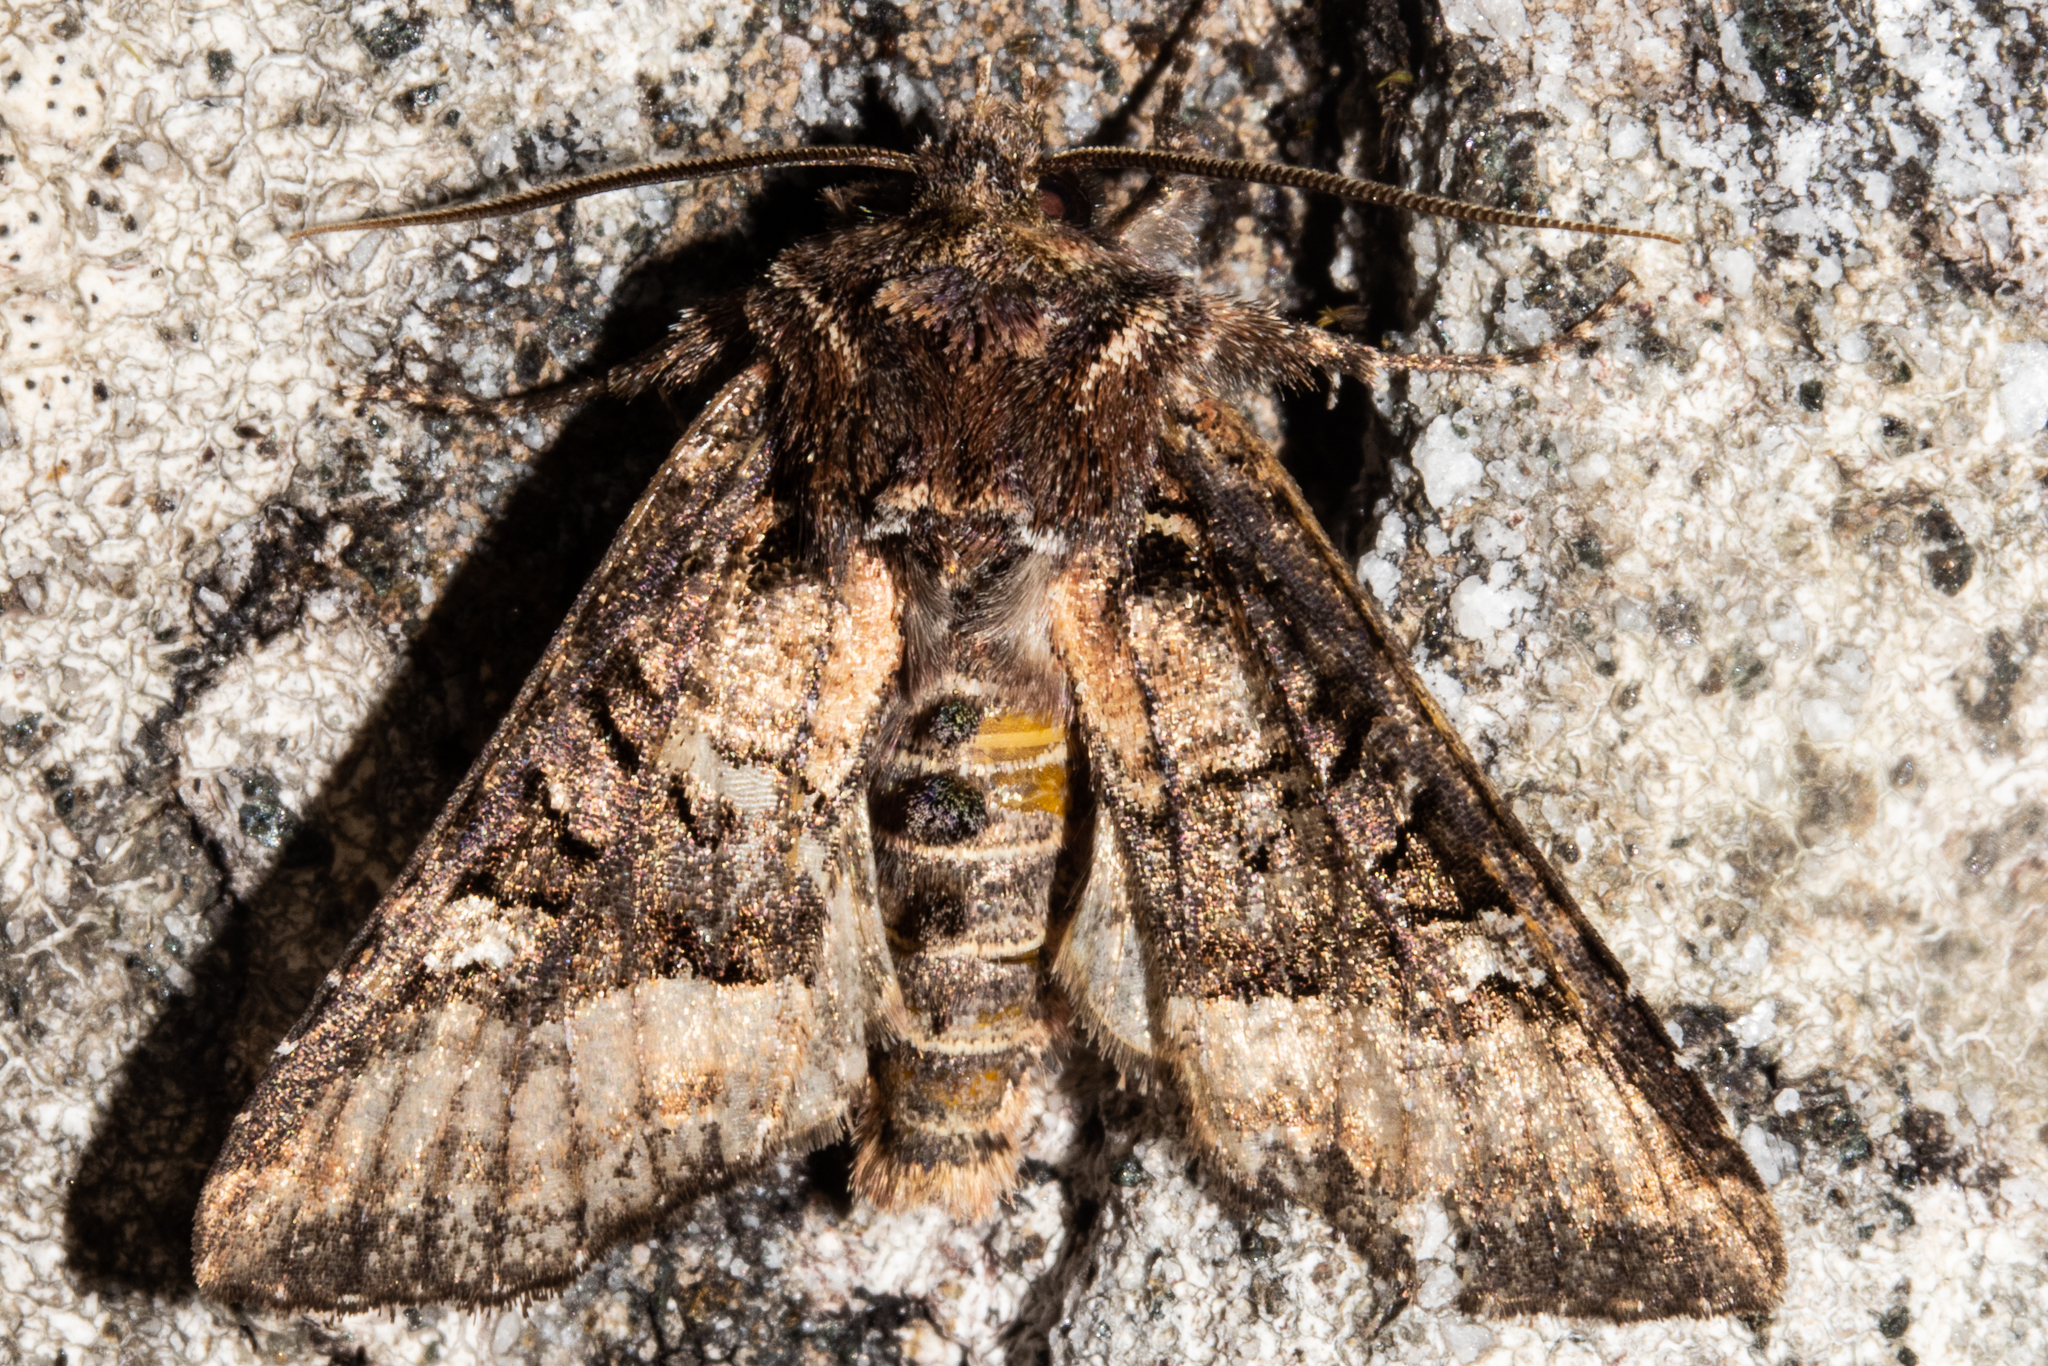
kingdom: Animalia
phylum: Arthropoda
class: Insecta
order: Lepidoptera
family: Noctuidae
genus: Meterana
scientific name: Meterana asterope
